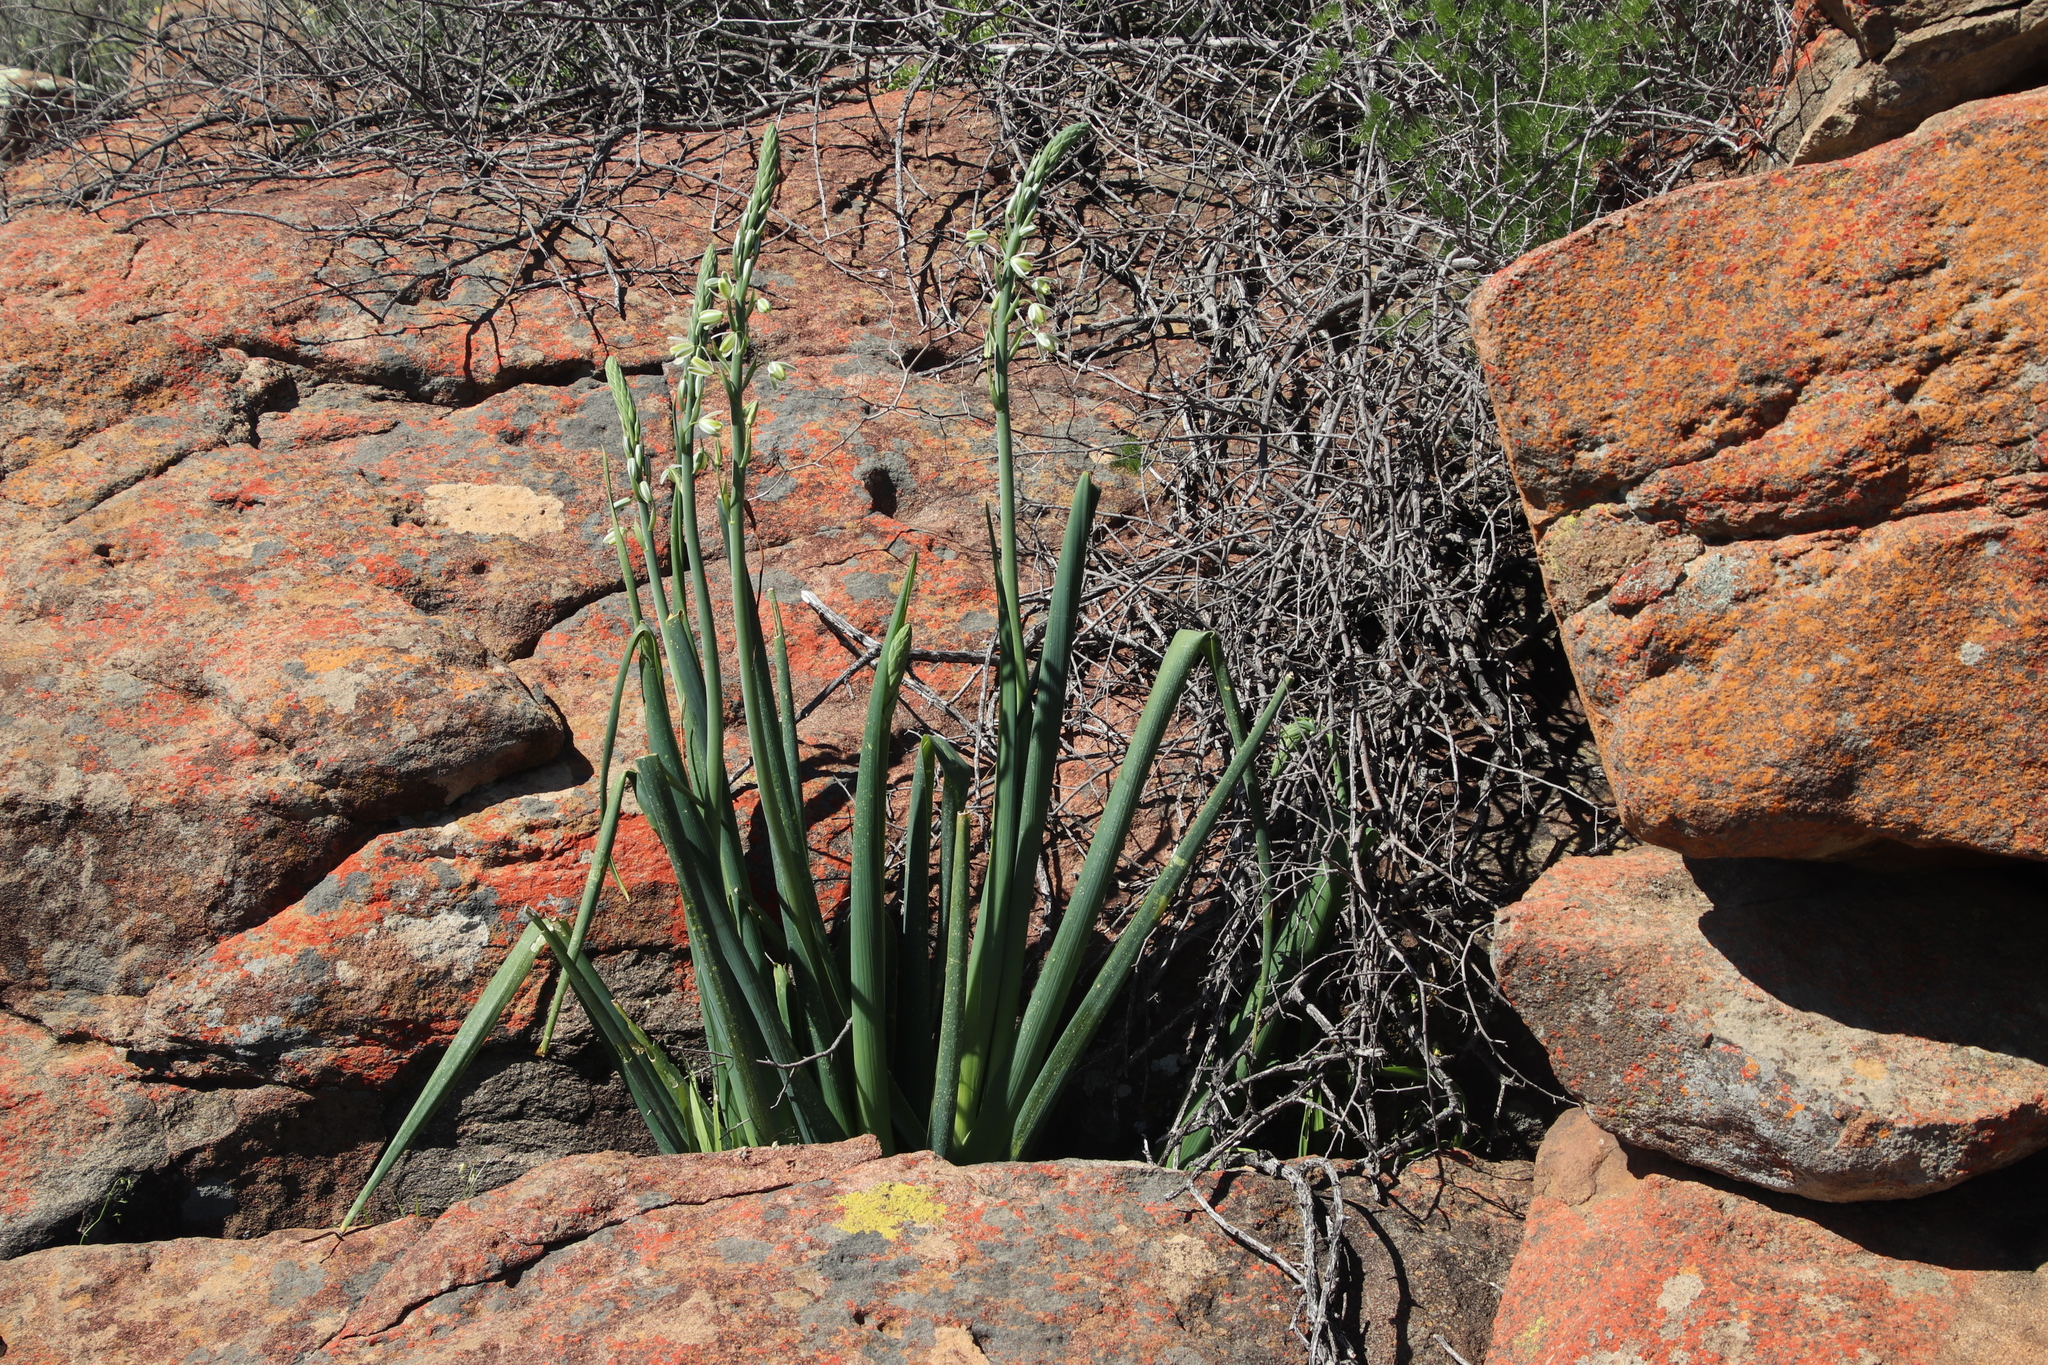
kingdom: Plantae
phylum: Tracheophyta
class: Liliopsida
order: Asparagales
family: Asparagaceae
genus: Albuca
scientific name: Albuca canadensis
